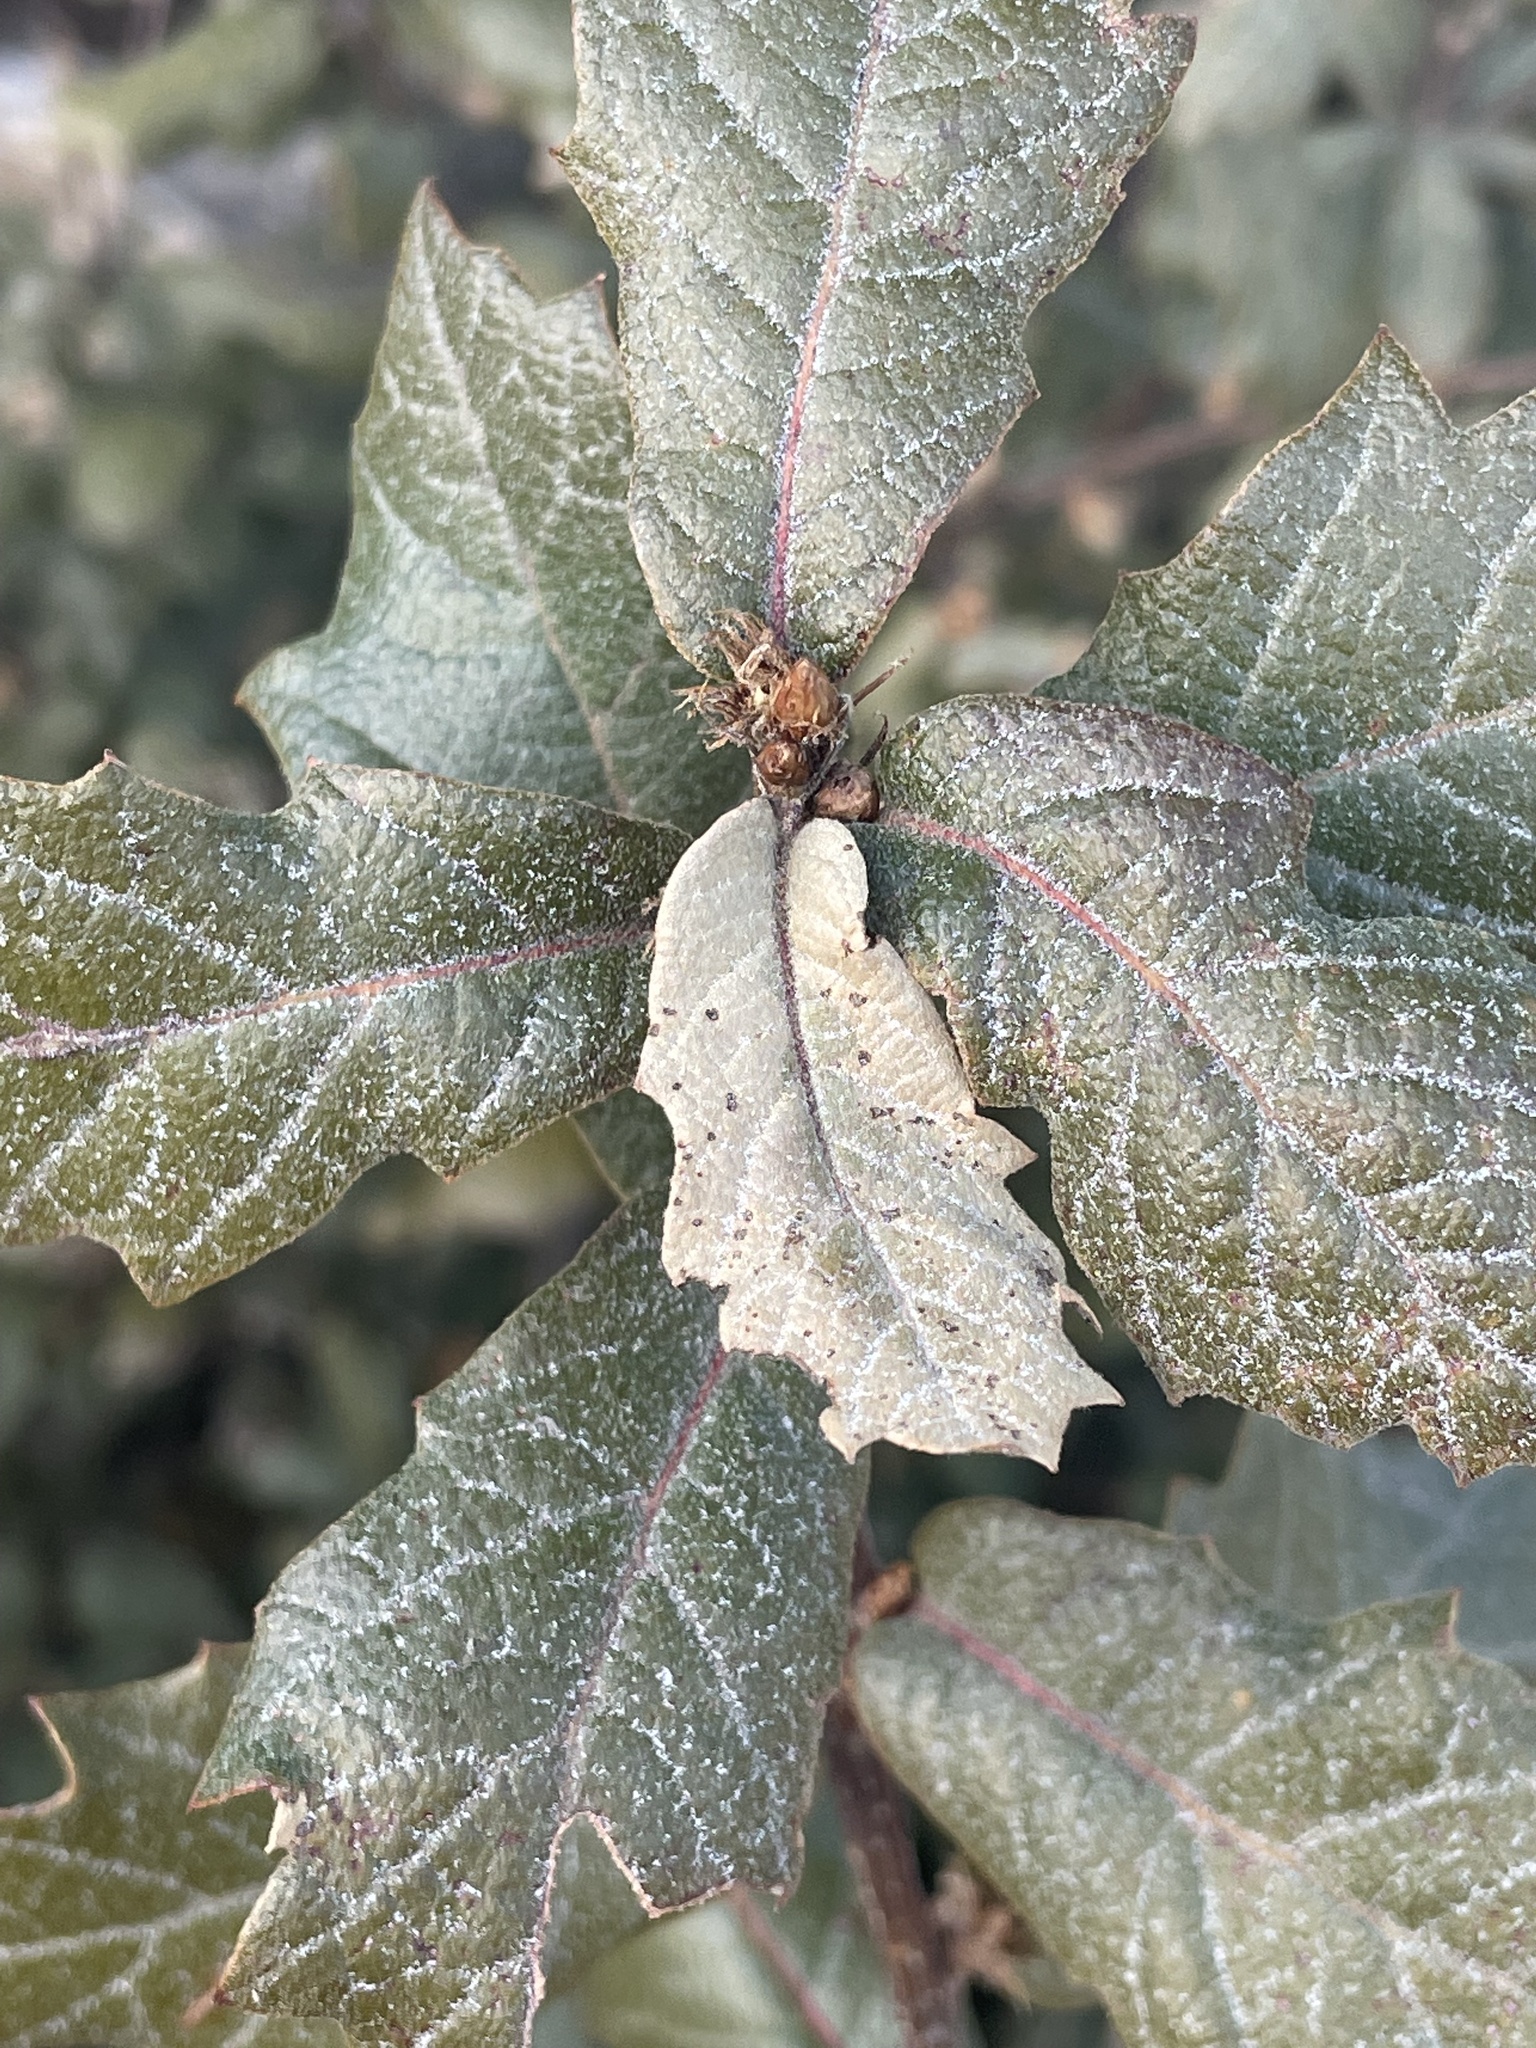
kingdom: Plantae
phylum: Tracheophyta
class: Magnoliopsida
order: Fagales
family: Fagaceae
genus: Quercus
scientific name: Quercus rugosa
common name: Netleaf oak
